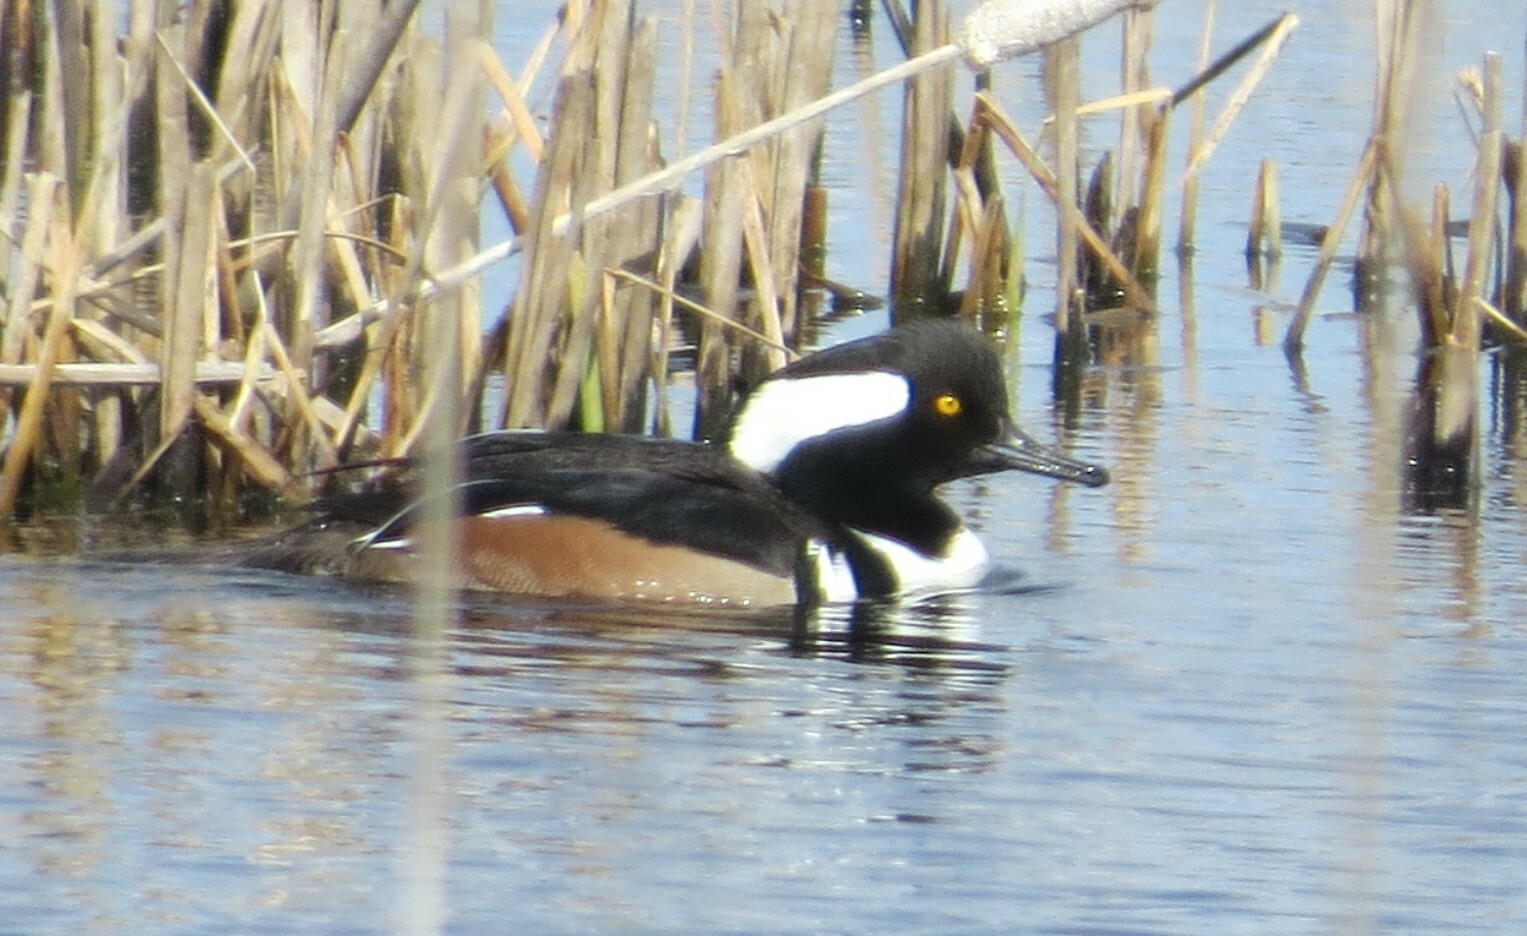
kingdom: Animalia
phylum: Chordata
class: Aves
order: Anseriformes
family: Anatidae
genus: Lophodytes
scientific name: Lophodytes cucullatus
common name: Hooded merganser
